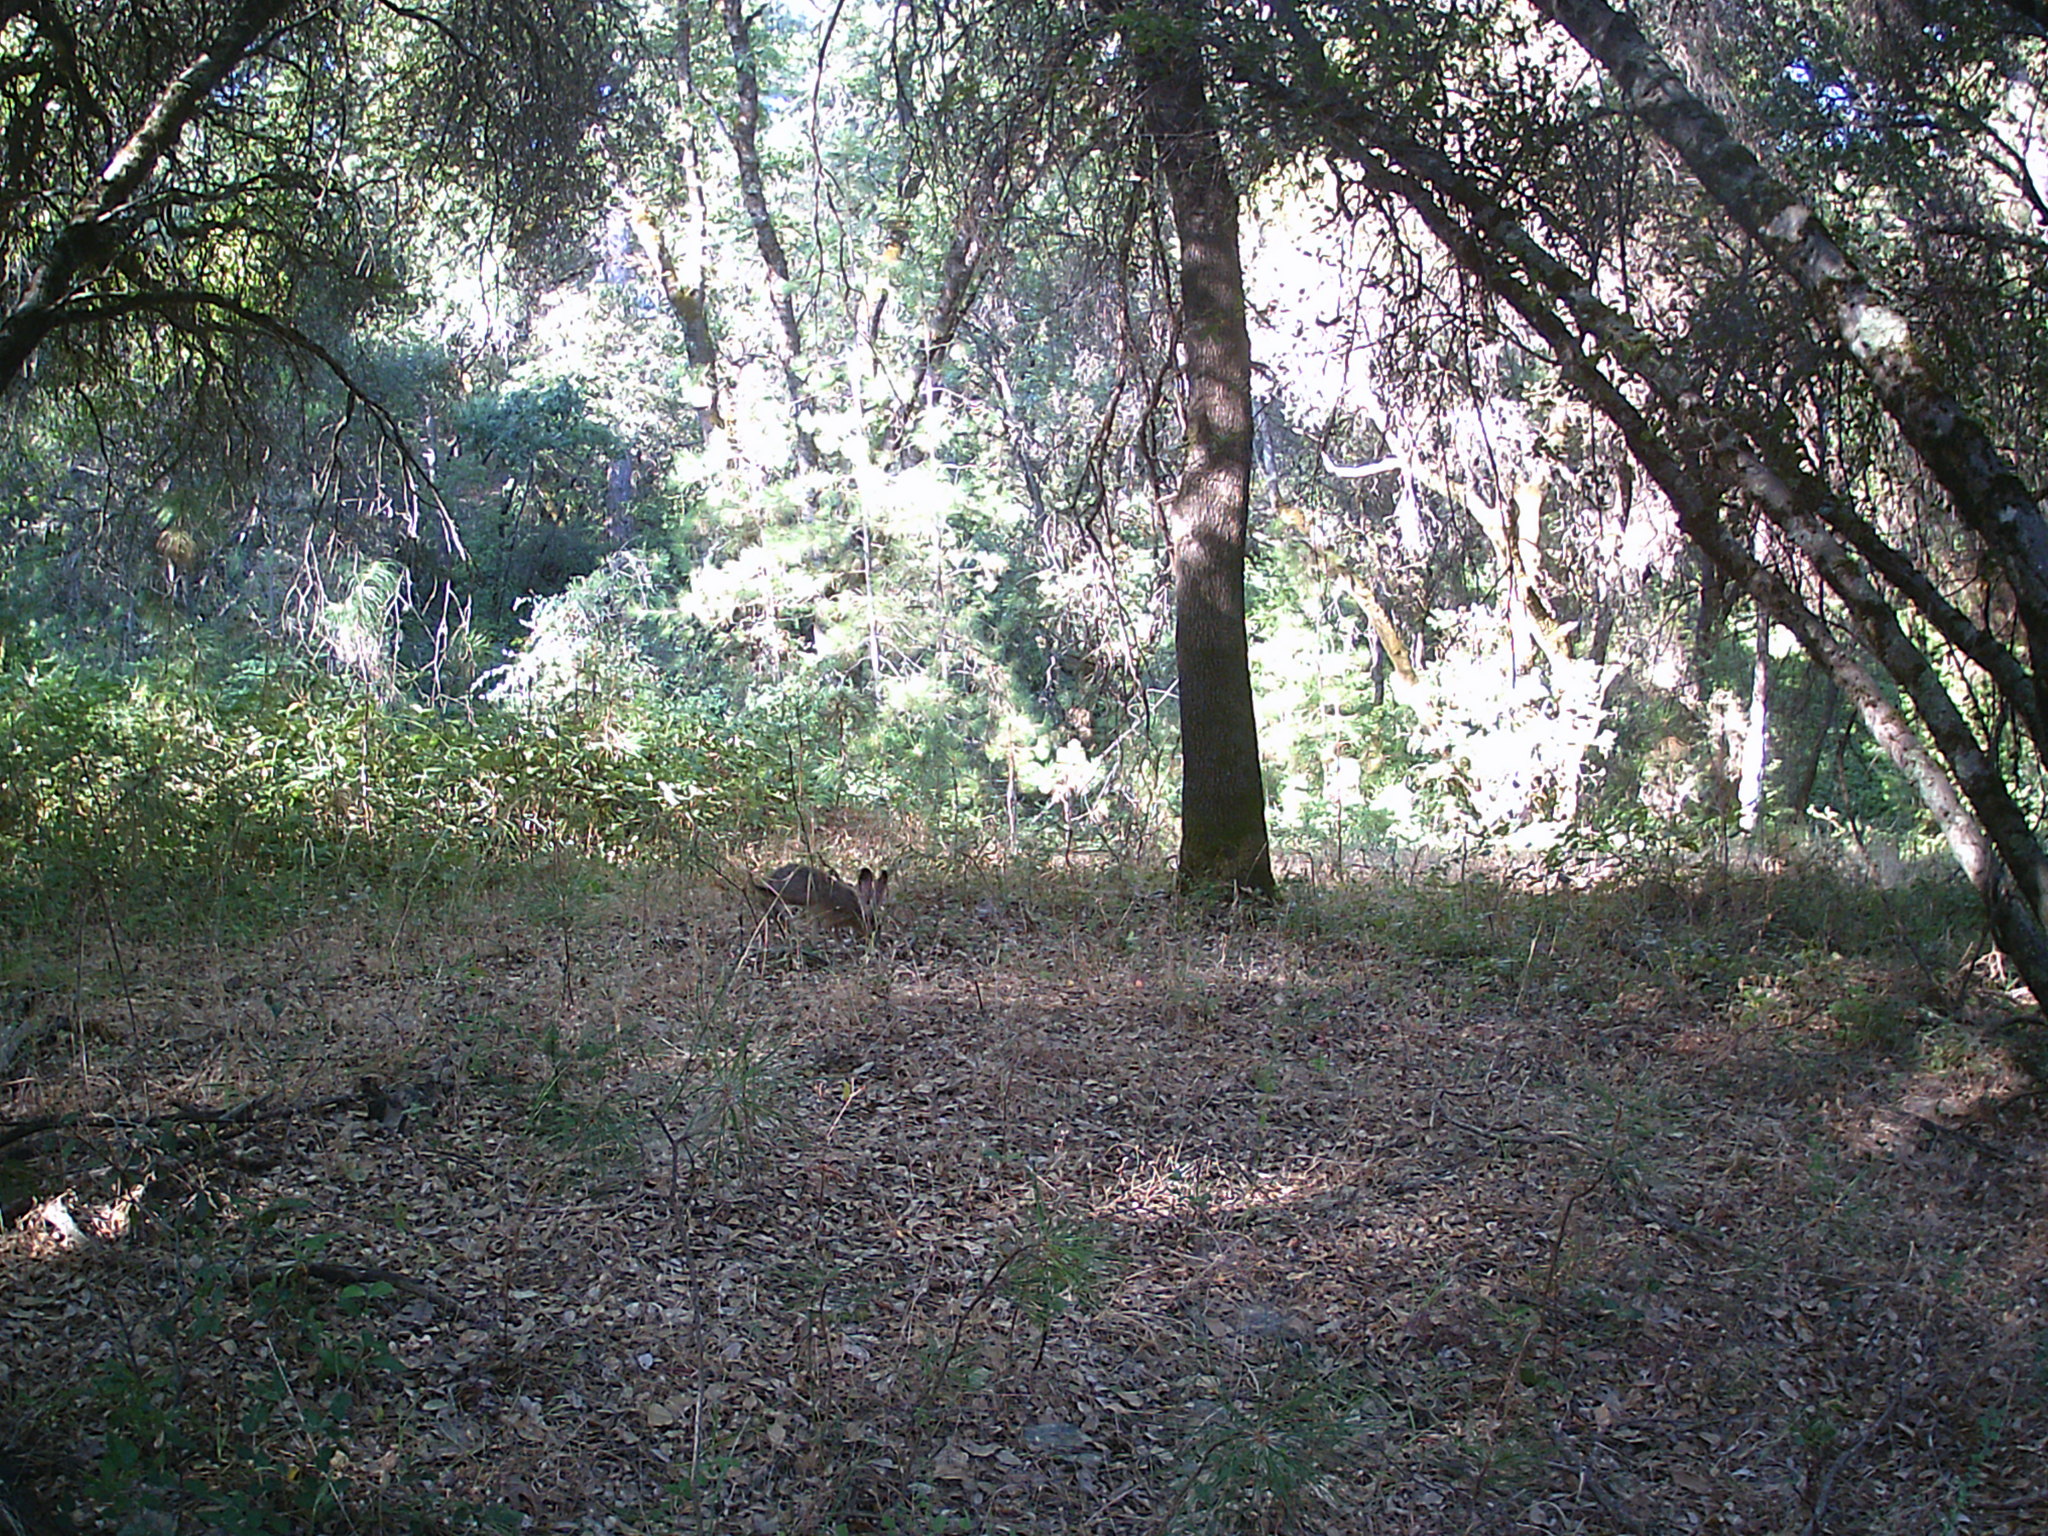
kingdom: Animalia
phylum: Chordata
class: Mammalia
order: Lagomorpha
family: Leporidae
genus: Lepus
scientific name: Lepus californicus
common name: Black-tailed jackrabbit
